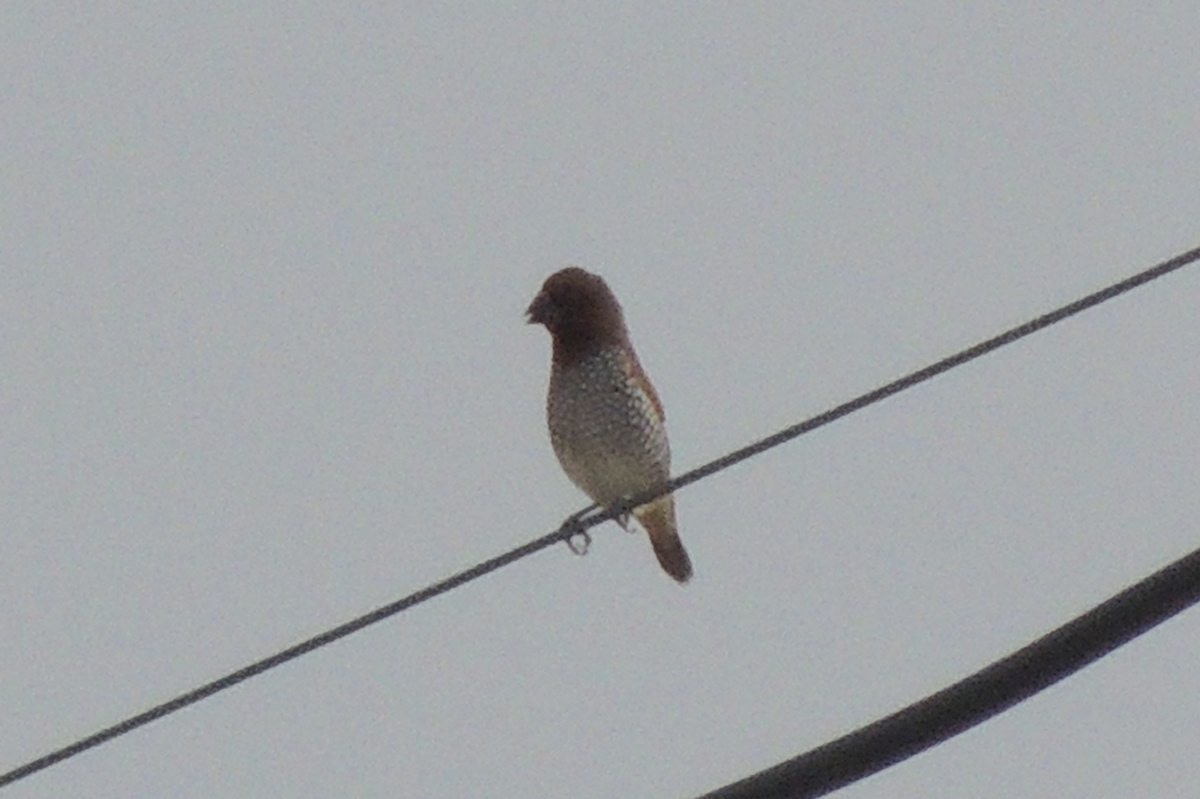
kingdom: Animalia
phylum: Chordata
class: Aves
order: Passeriformes
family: Estrildidae
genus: Lonchura
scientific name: Lonchura punctulata
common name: Scaly-breasted munia
